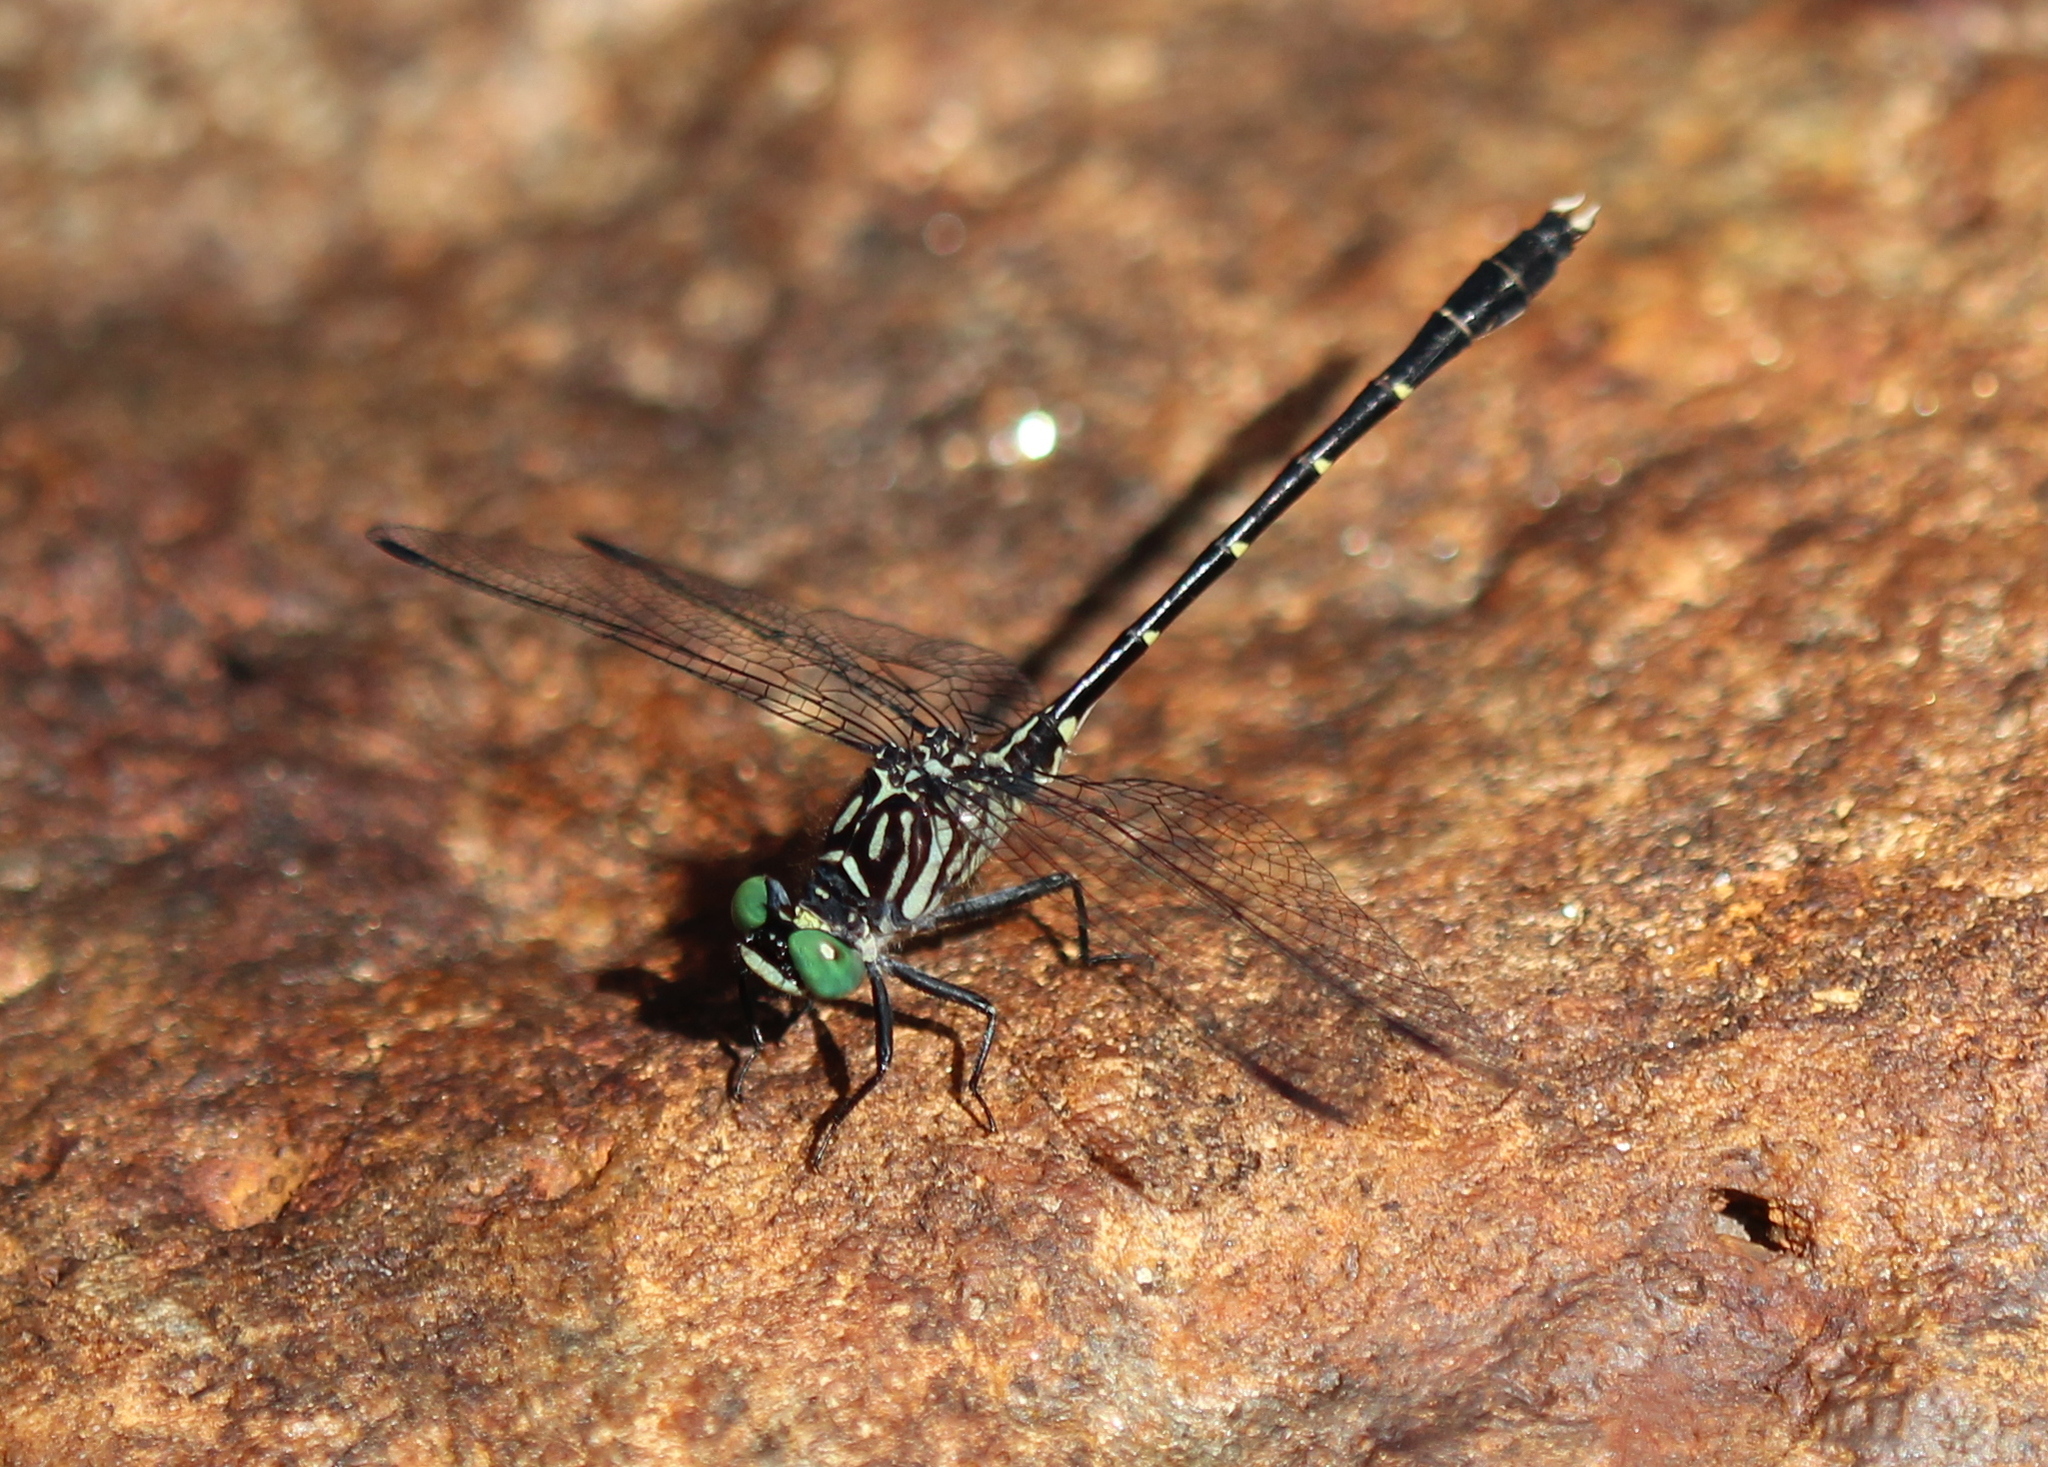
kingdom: Animalia
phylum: Arthropoda
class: Insecta
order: Odonata
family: Gomphidae
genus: Stylogomphus
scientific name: Stylogomphus albistylus
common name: Eastern least clubtail
